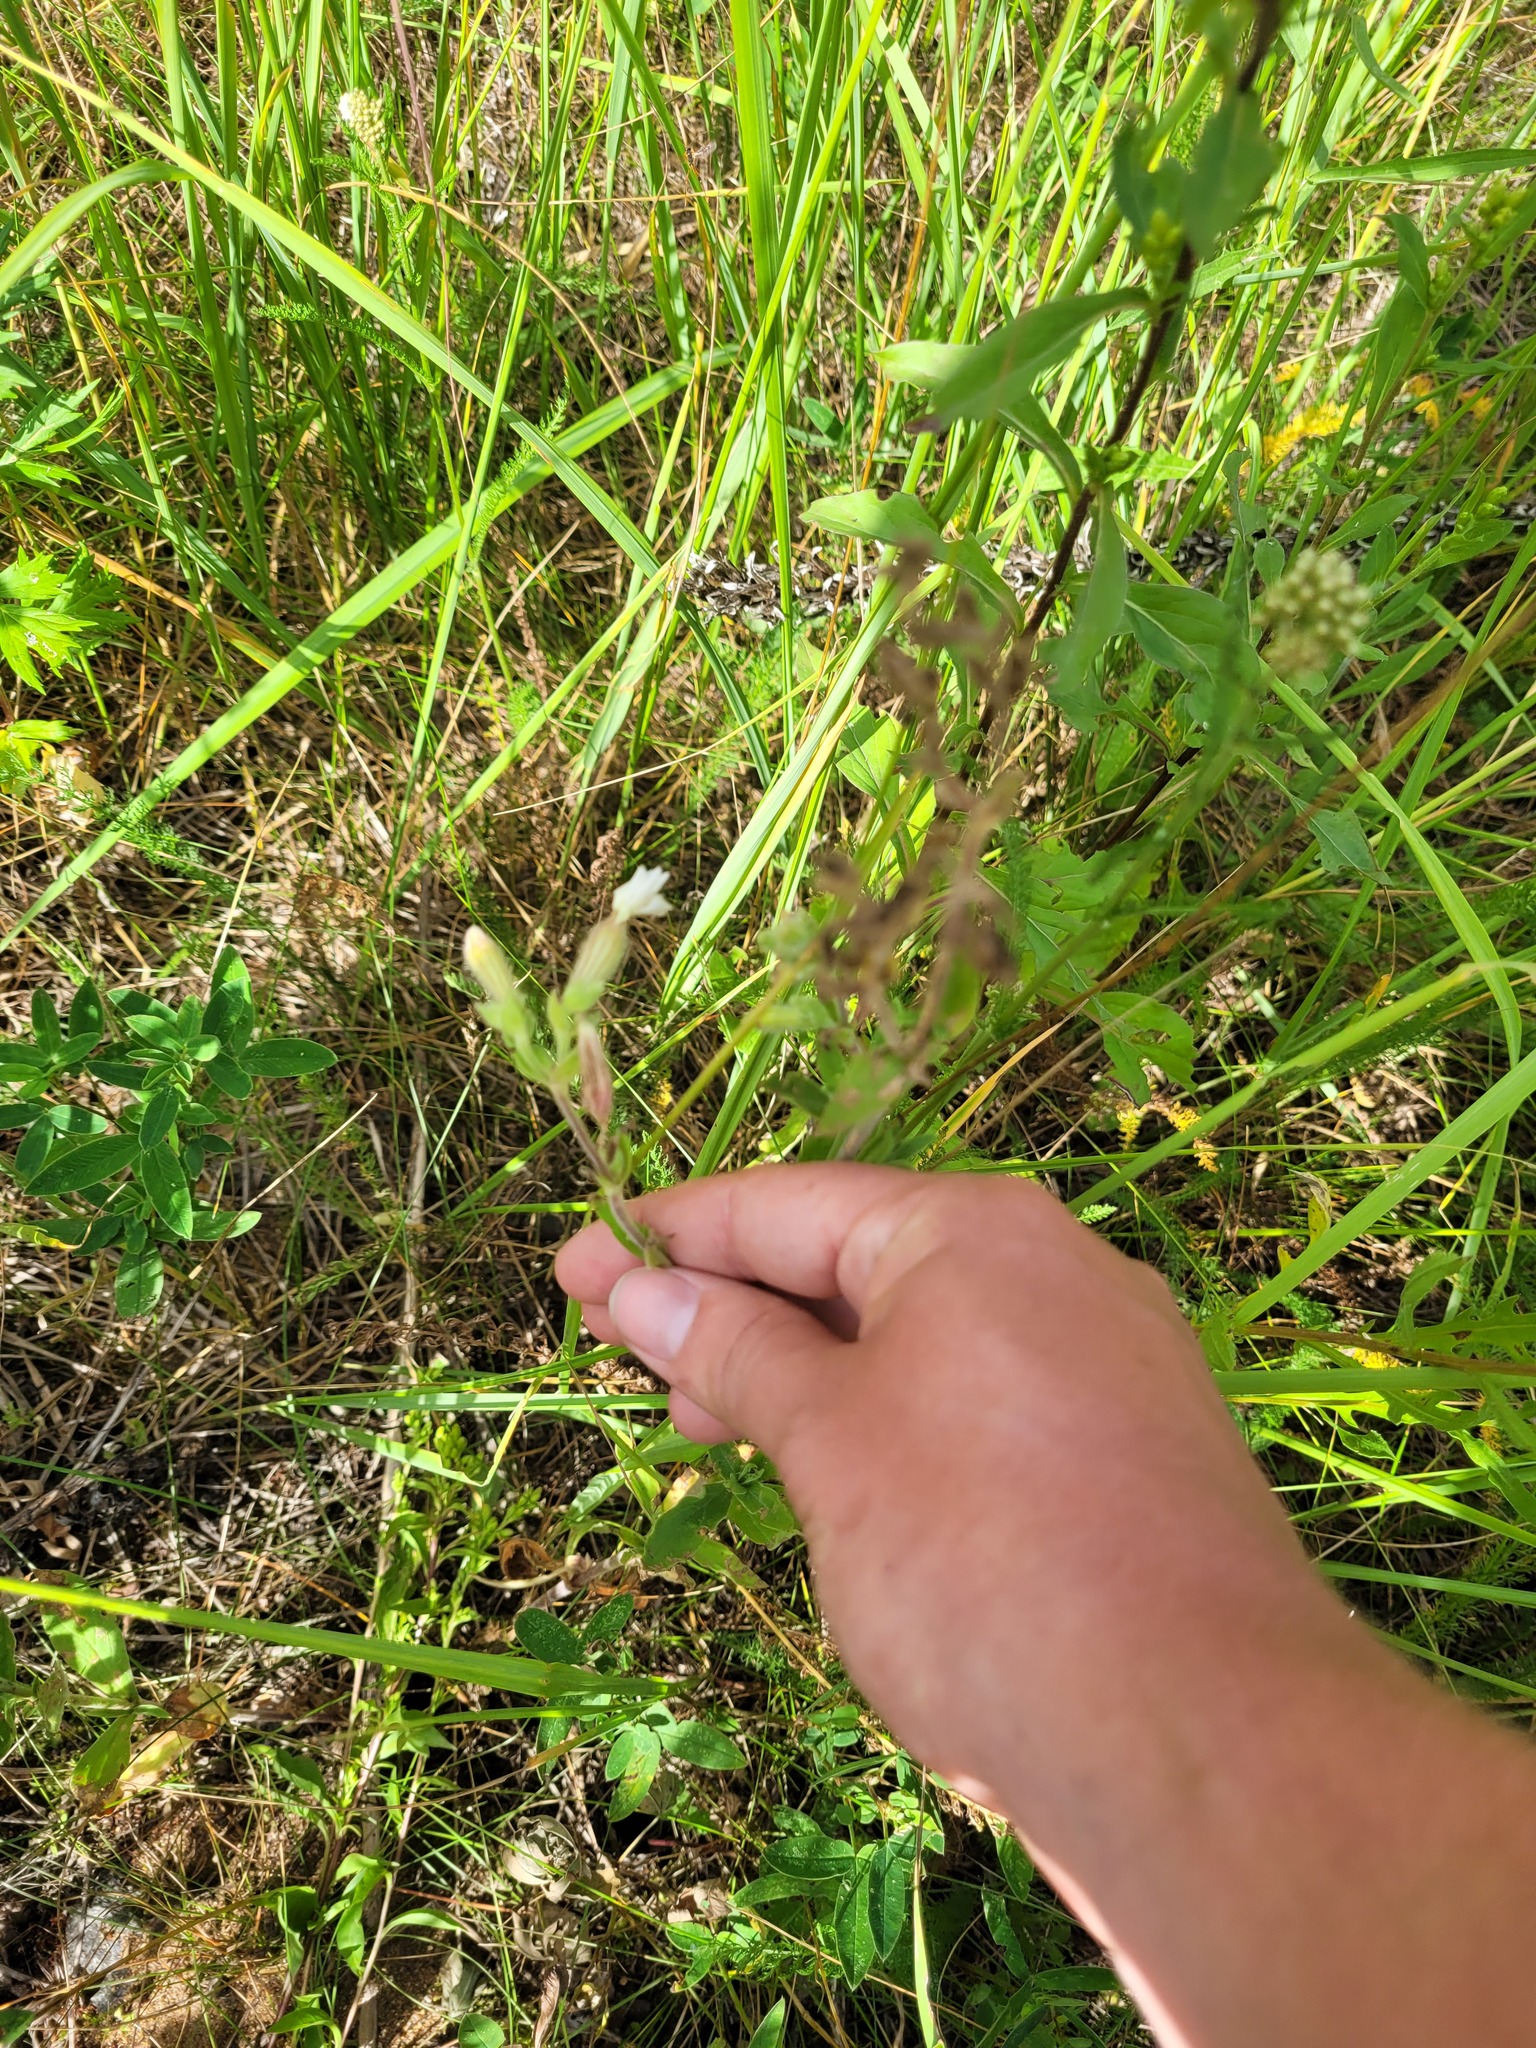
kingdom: Plantae
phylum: Tracheophyta
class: Magnoliopsida
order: Caryophyllales
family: Caryophyllaceae
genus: Silene
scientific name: Silene latifolia
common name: White campion
